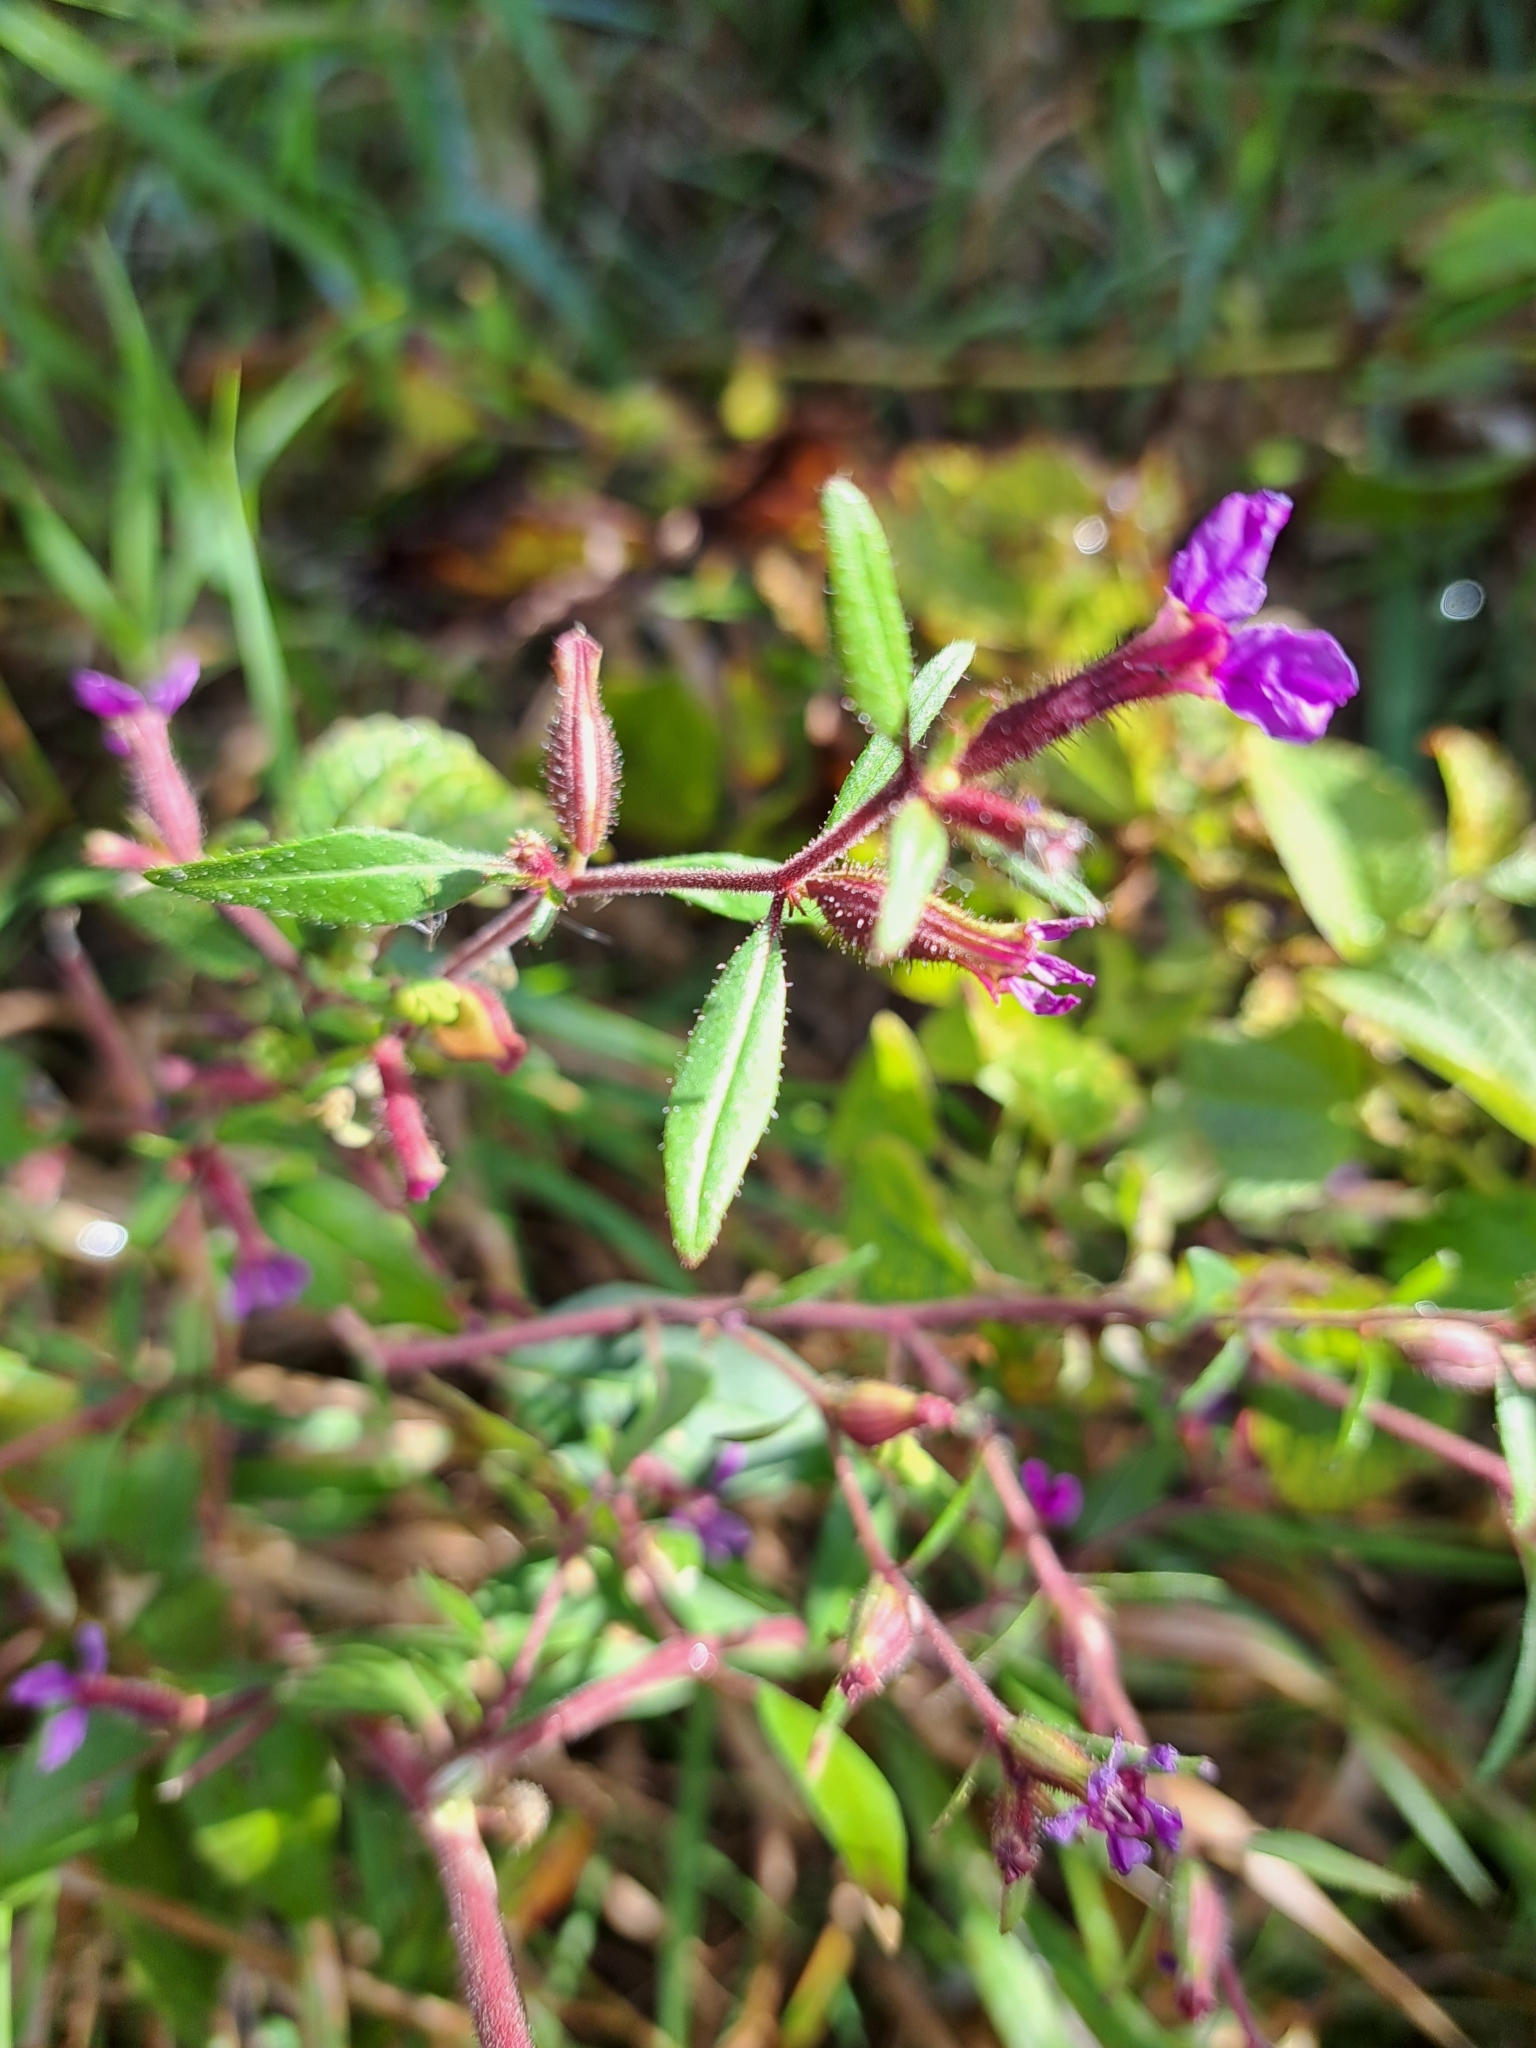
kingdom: Plantae
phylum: Tracheophyta
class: Magnoliopsida
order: Myrtales
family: Lythraceae
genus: Cuphea
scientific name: Cuphea viscosissima
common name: Clammy cuphea
